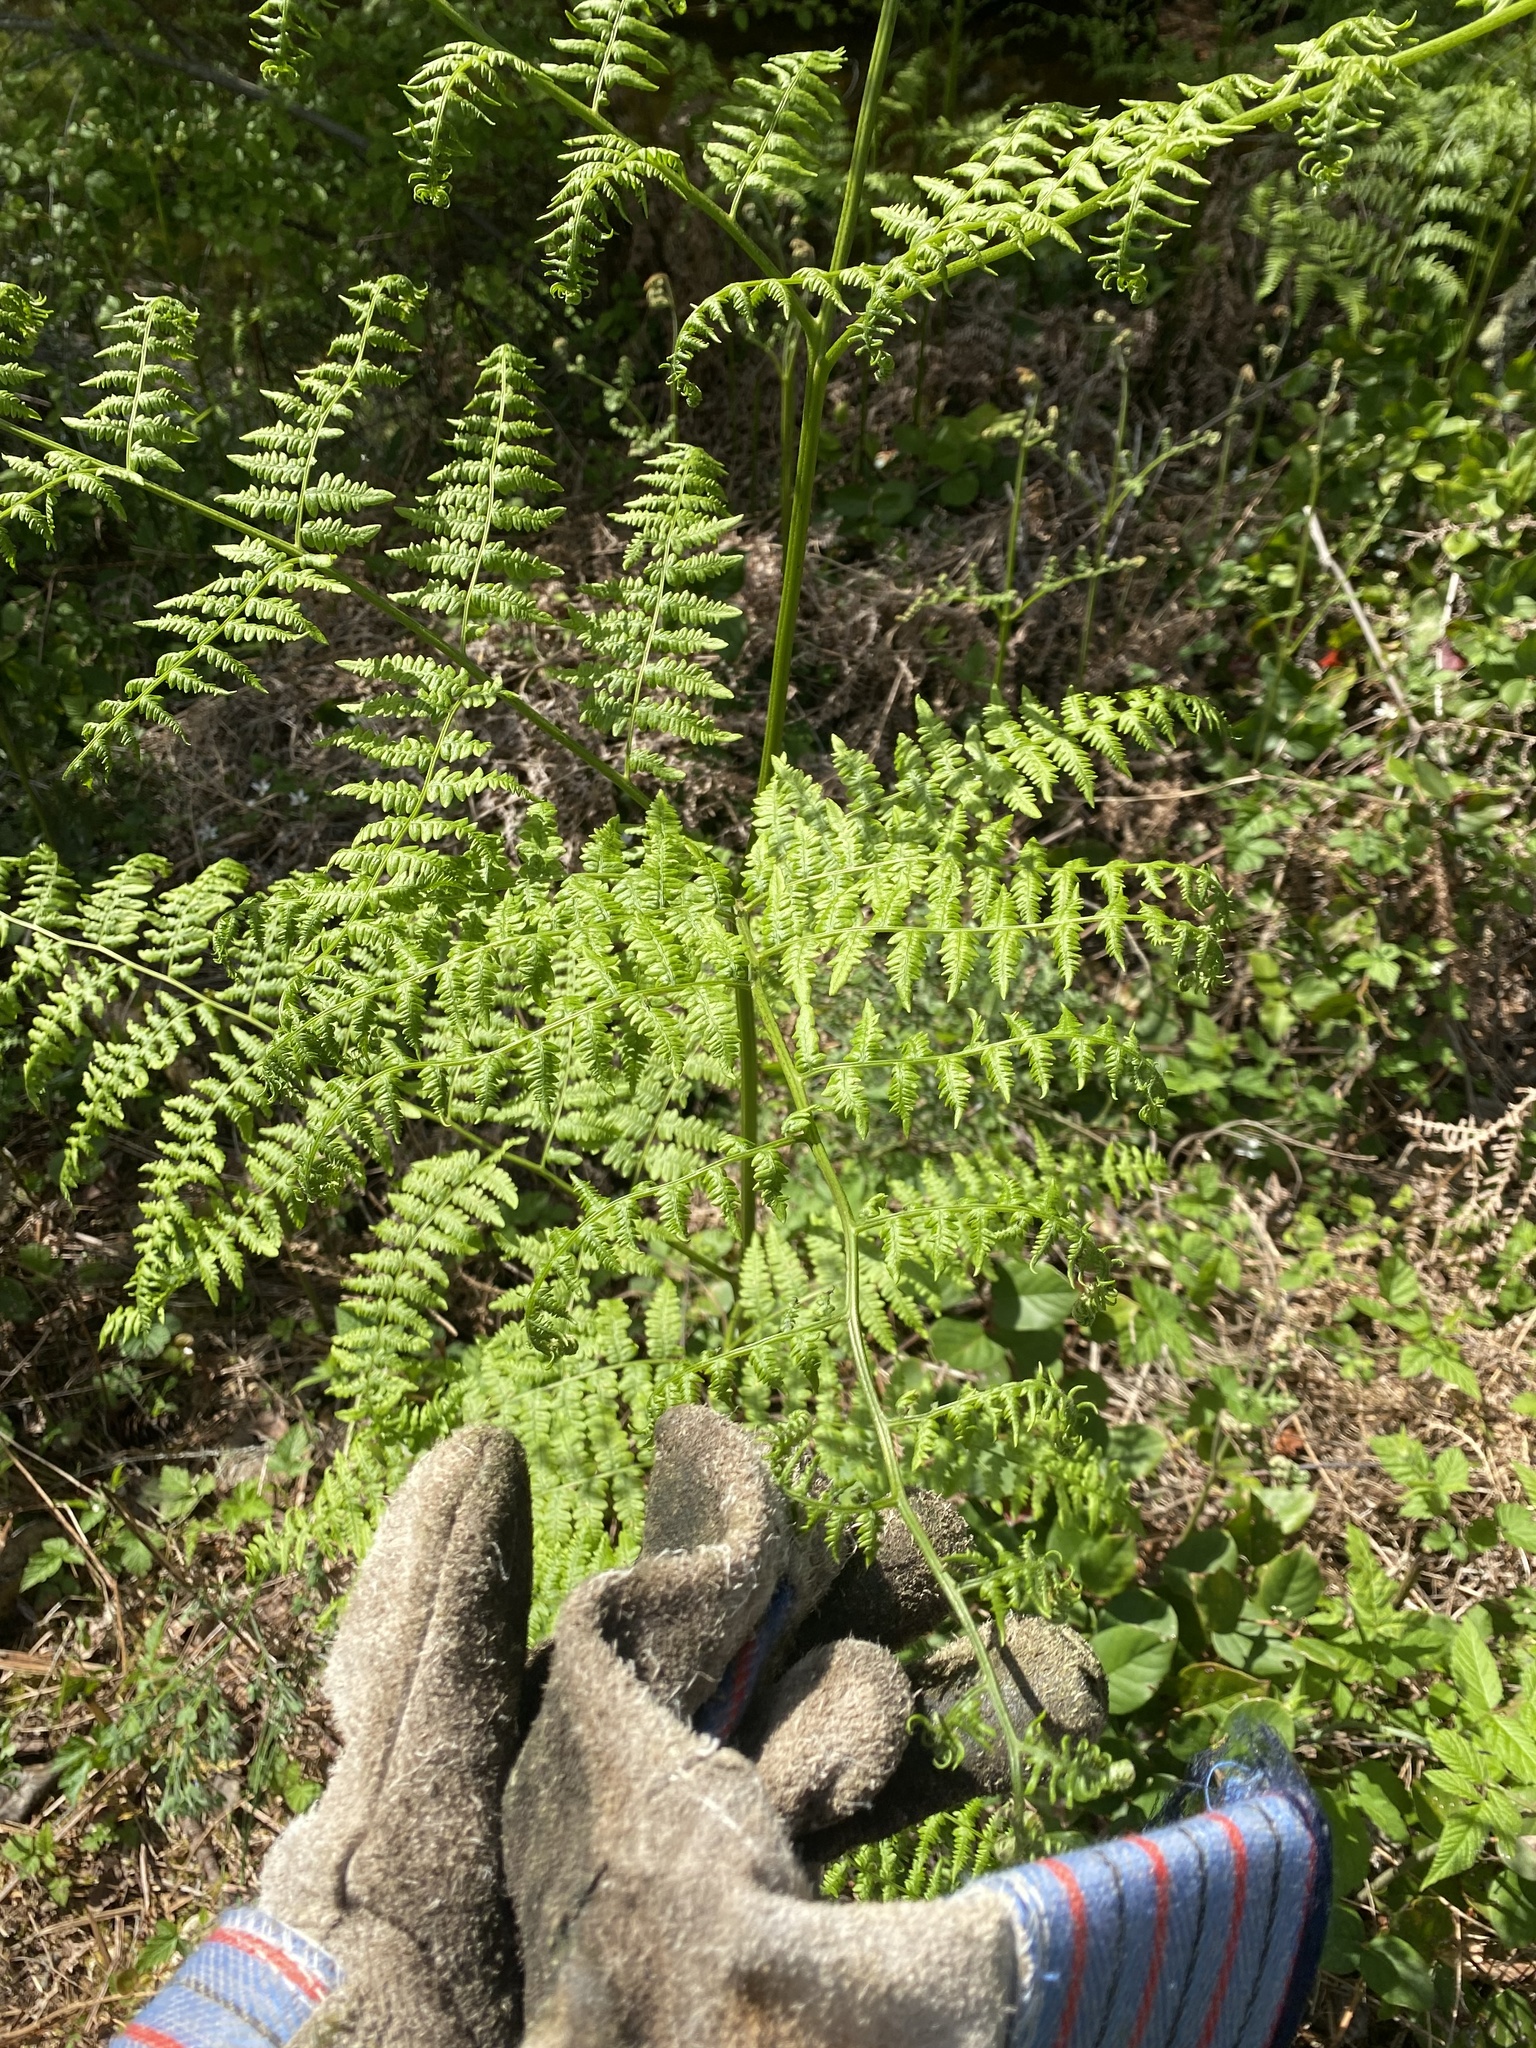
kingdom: Plantae
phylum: Tracheophyta
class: Polypodiopsida
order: Polypodiales
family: Dennstaedtiaceae
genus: Pteridium
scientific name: Pteridium aquilinum
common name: Bracken
